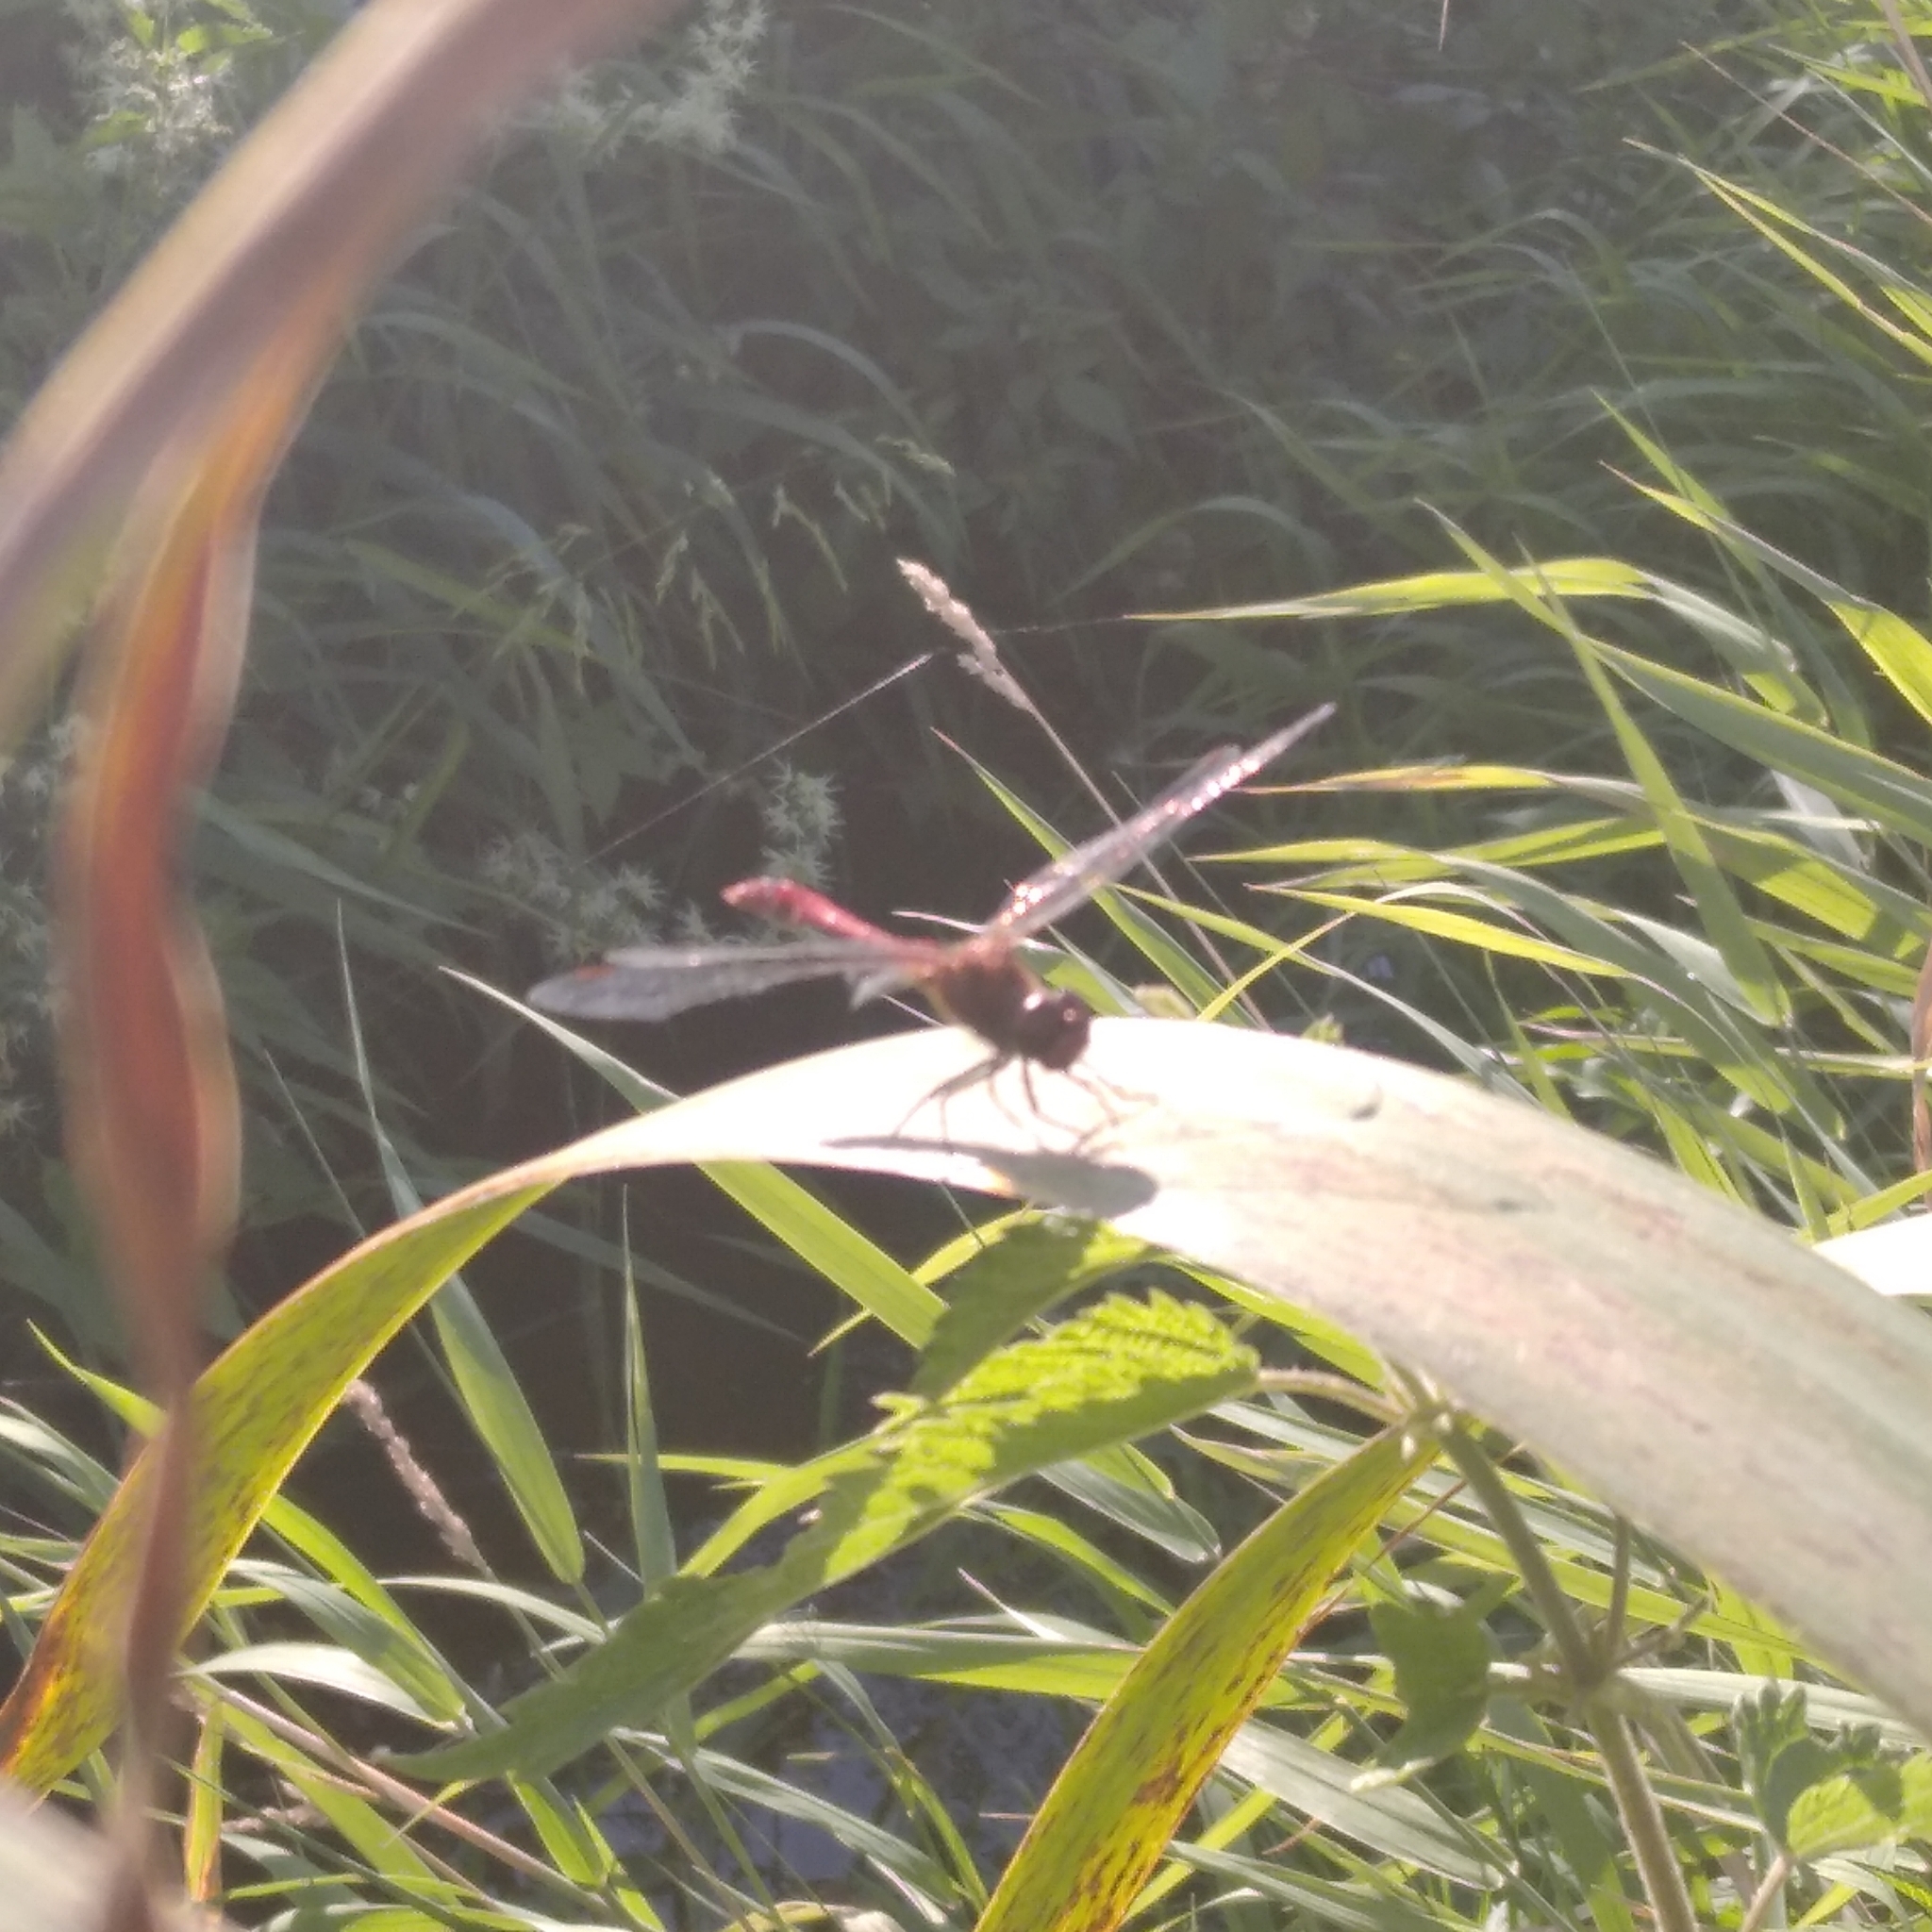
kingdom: Animalia
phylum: Arthropoda
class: Insecta
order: Odonata
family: Libellulidae
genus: Sympetrum
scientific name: Sympetrum sanguineum
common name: Ruddy darter
